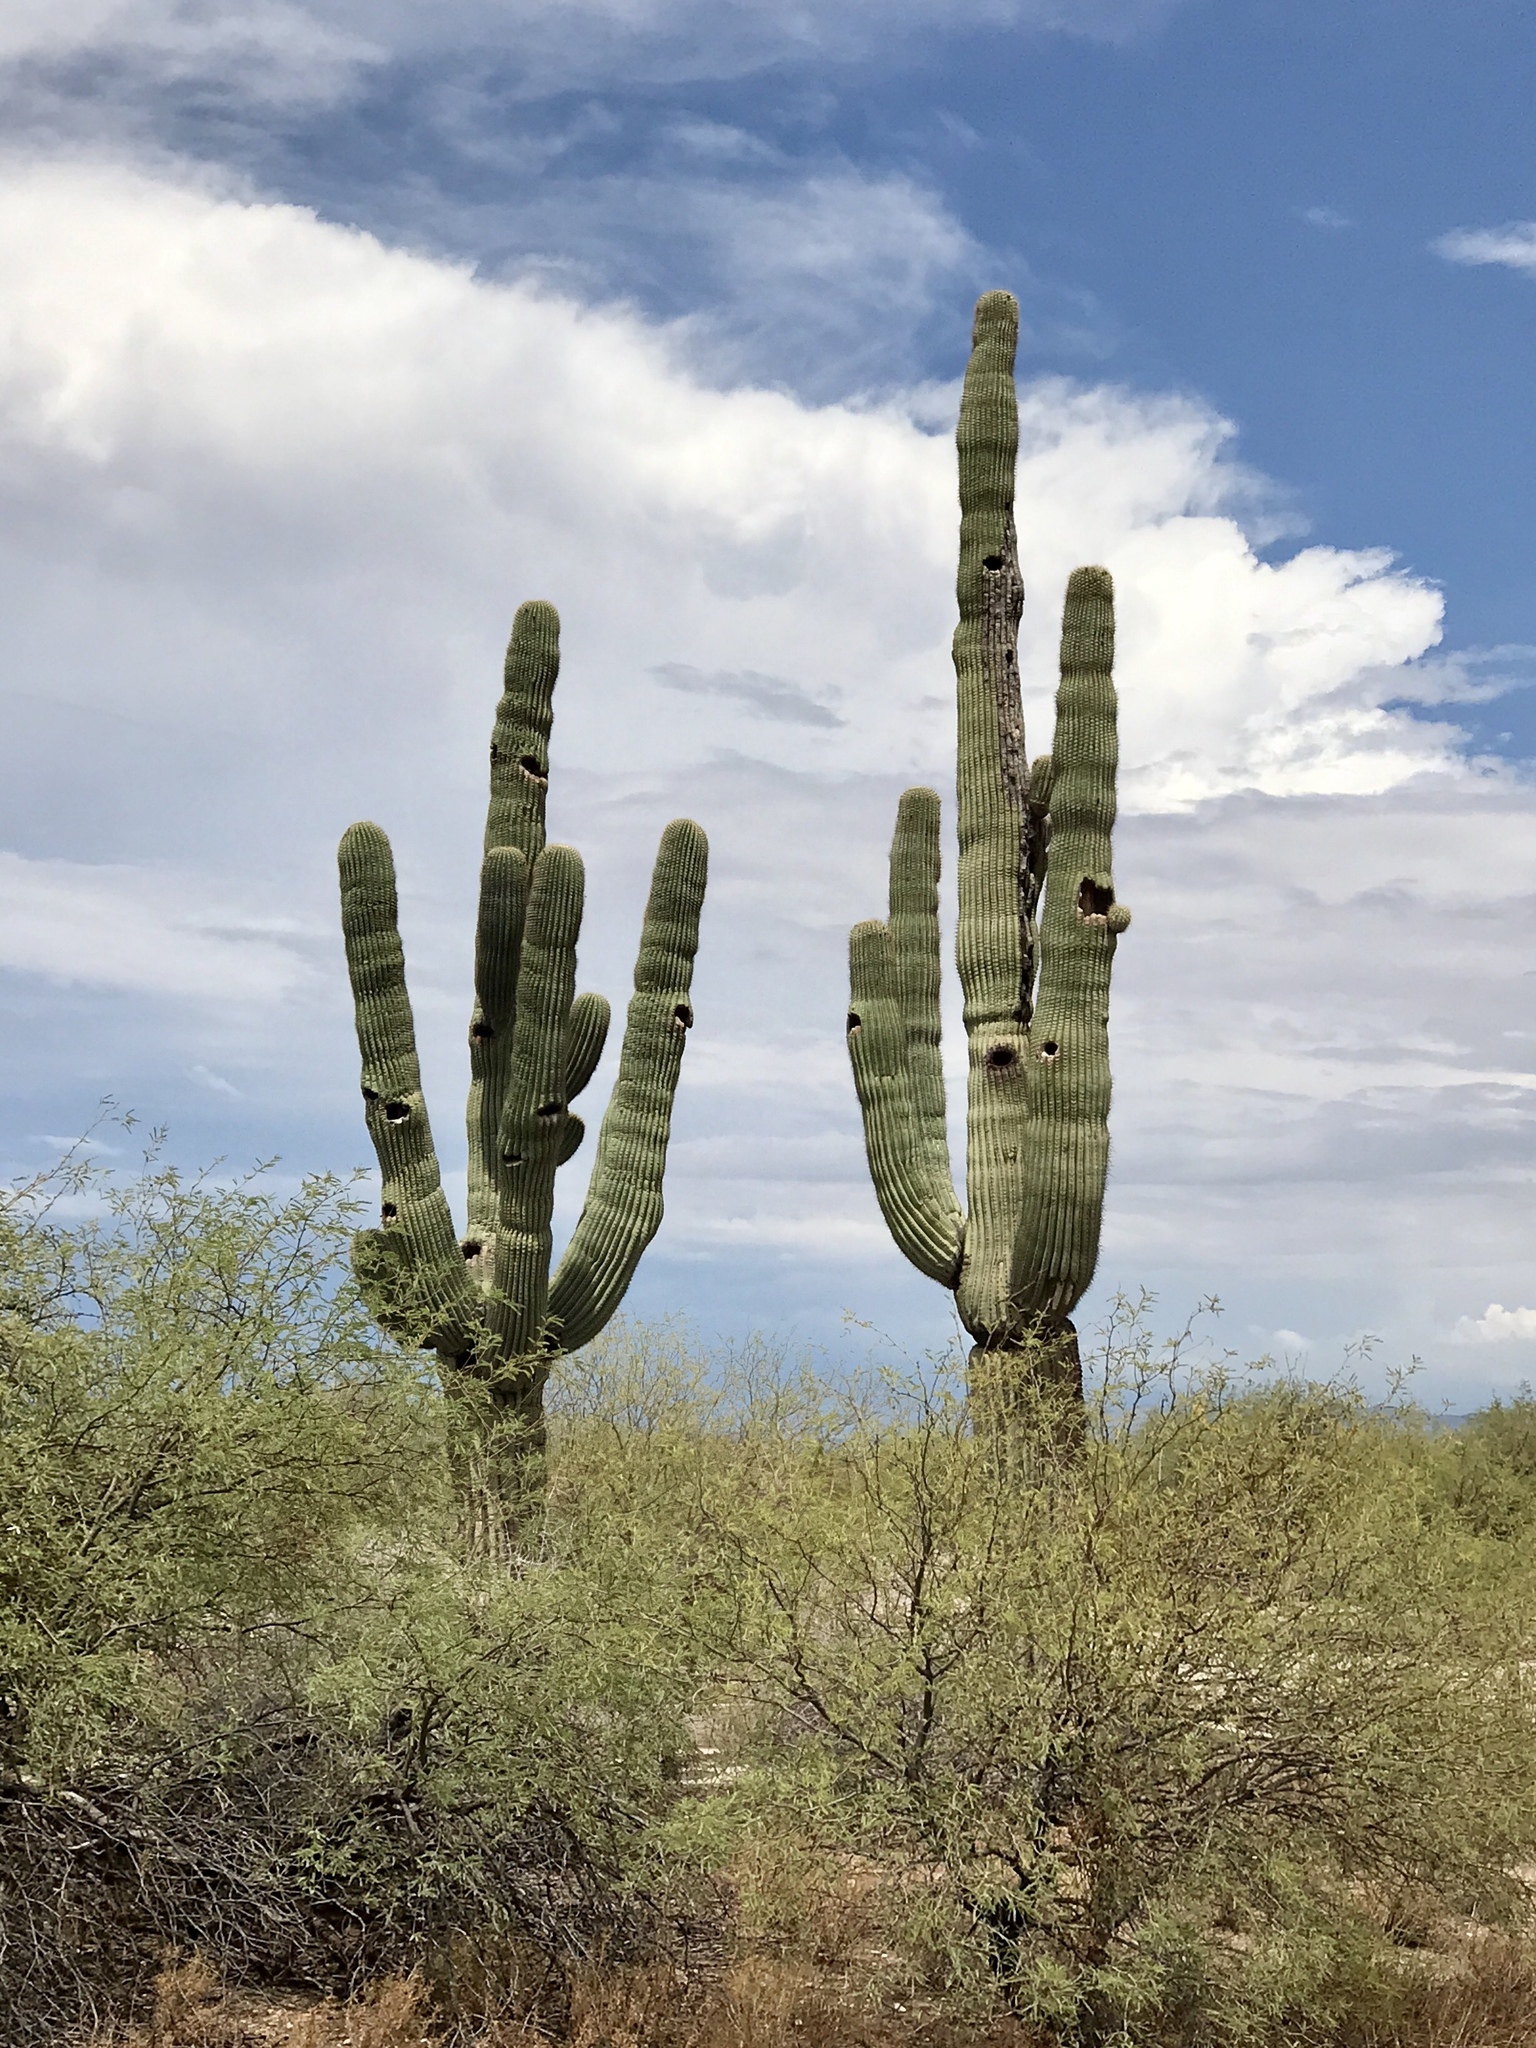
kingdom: Plantae
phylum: Tracheophyta
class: Magnoliopsida
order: Caryophyllales
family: Cactaceae
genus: Carnegiea
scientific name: Carnegiea gigantea
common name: Saguaro
